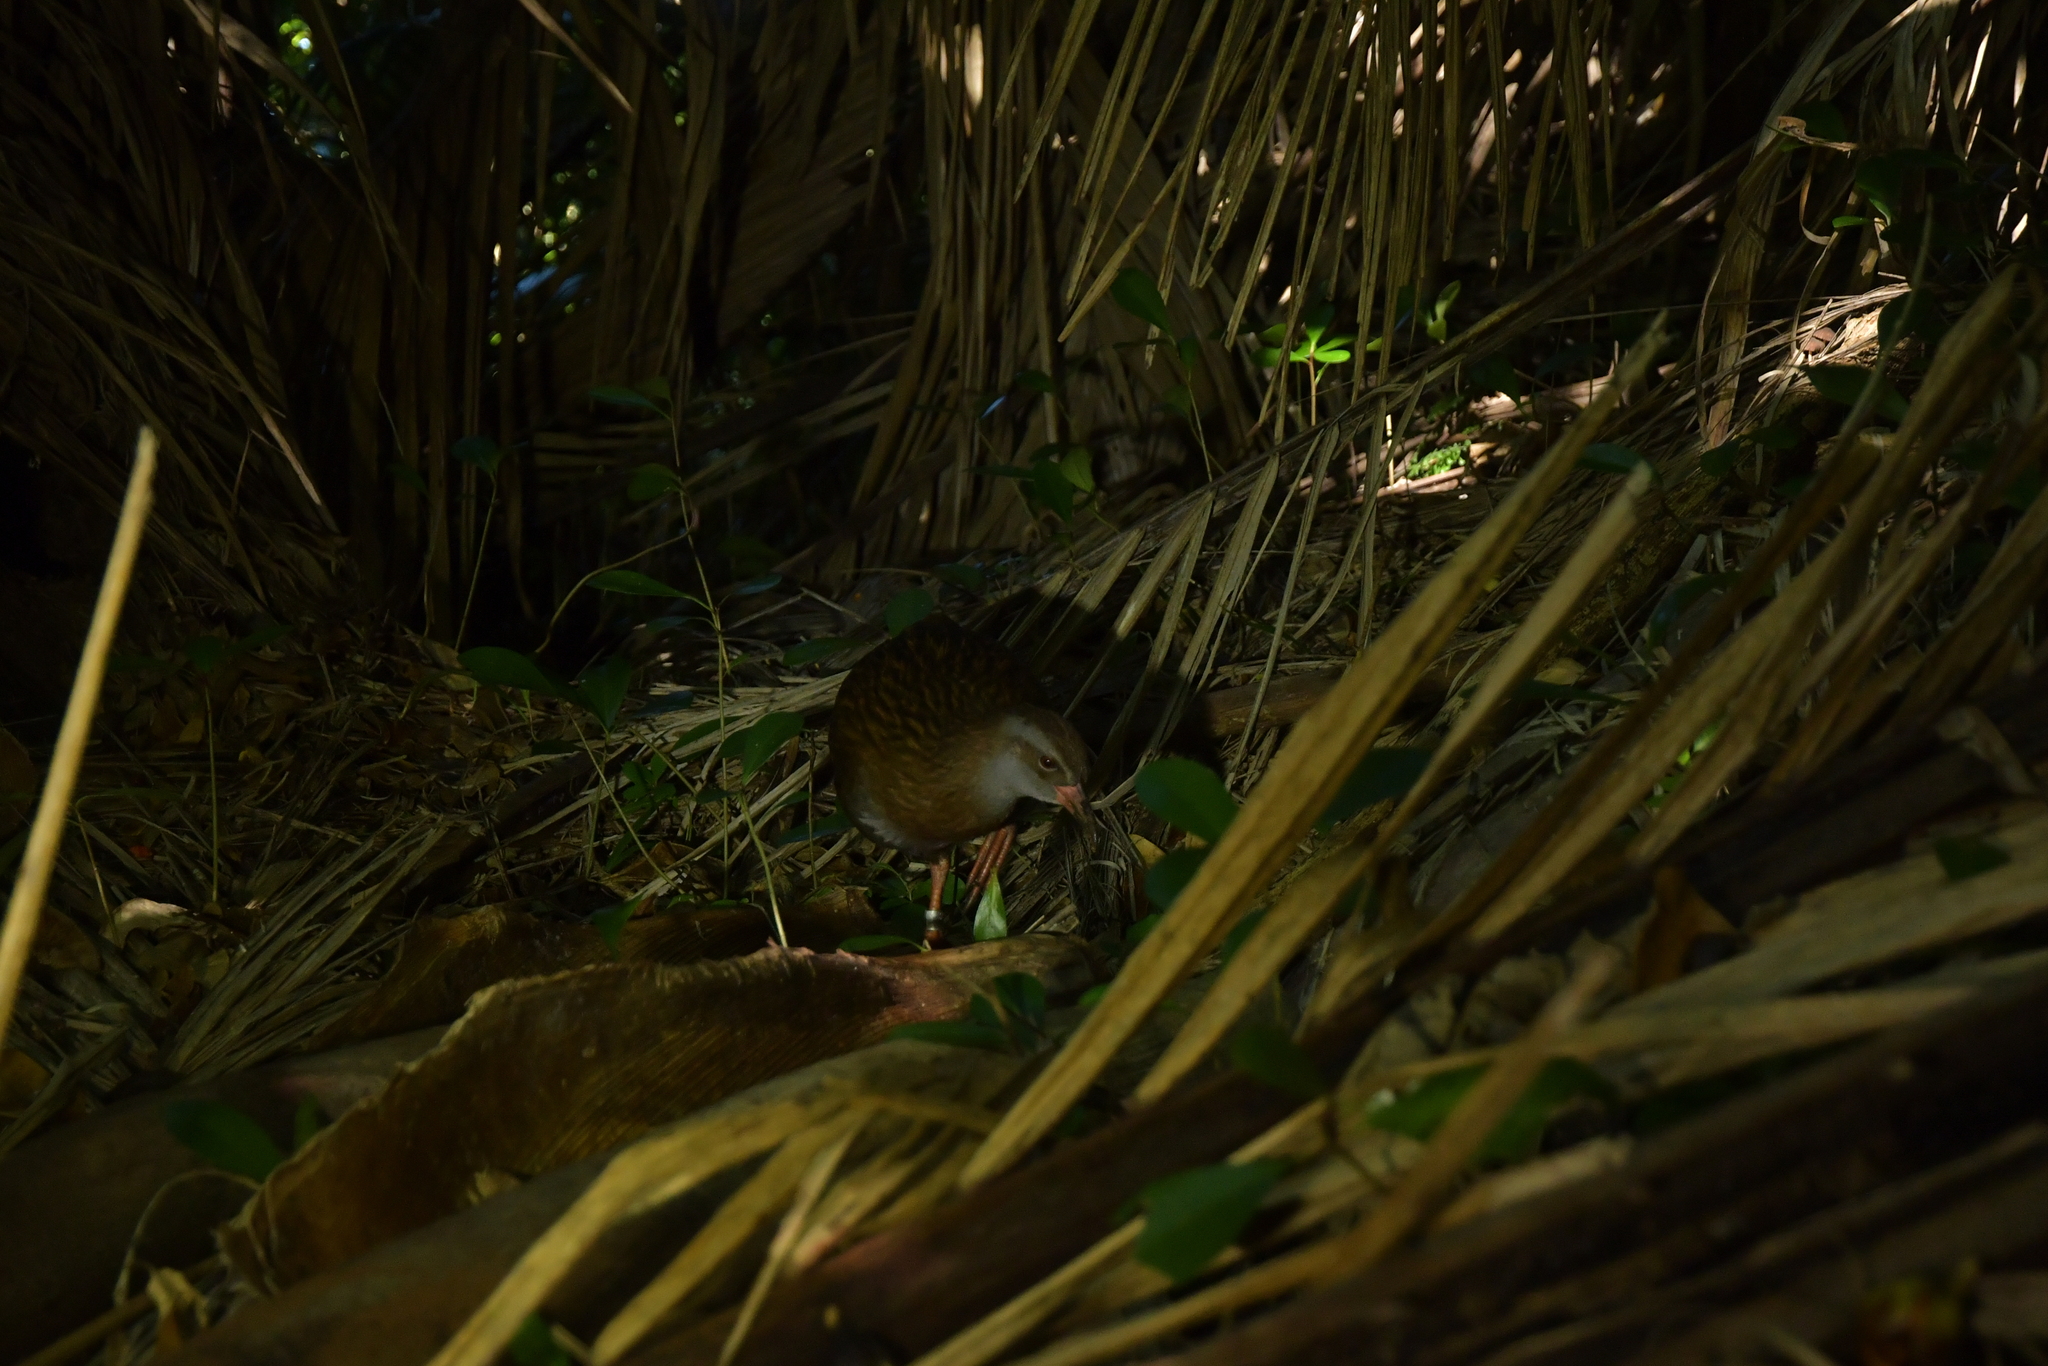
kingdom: Animalia
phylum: Chordata
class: Aves
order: Gruiformes
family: Rallidae
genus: Gallirallus
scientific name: Gallirallus
